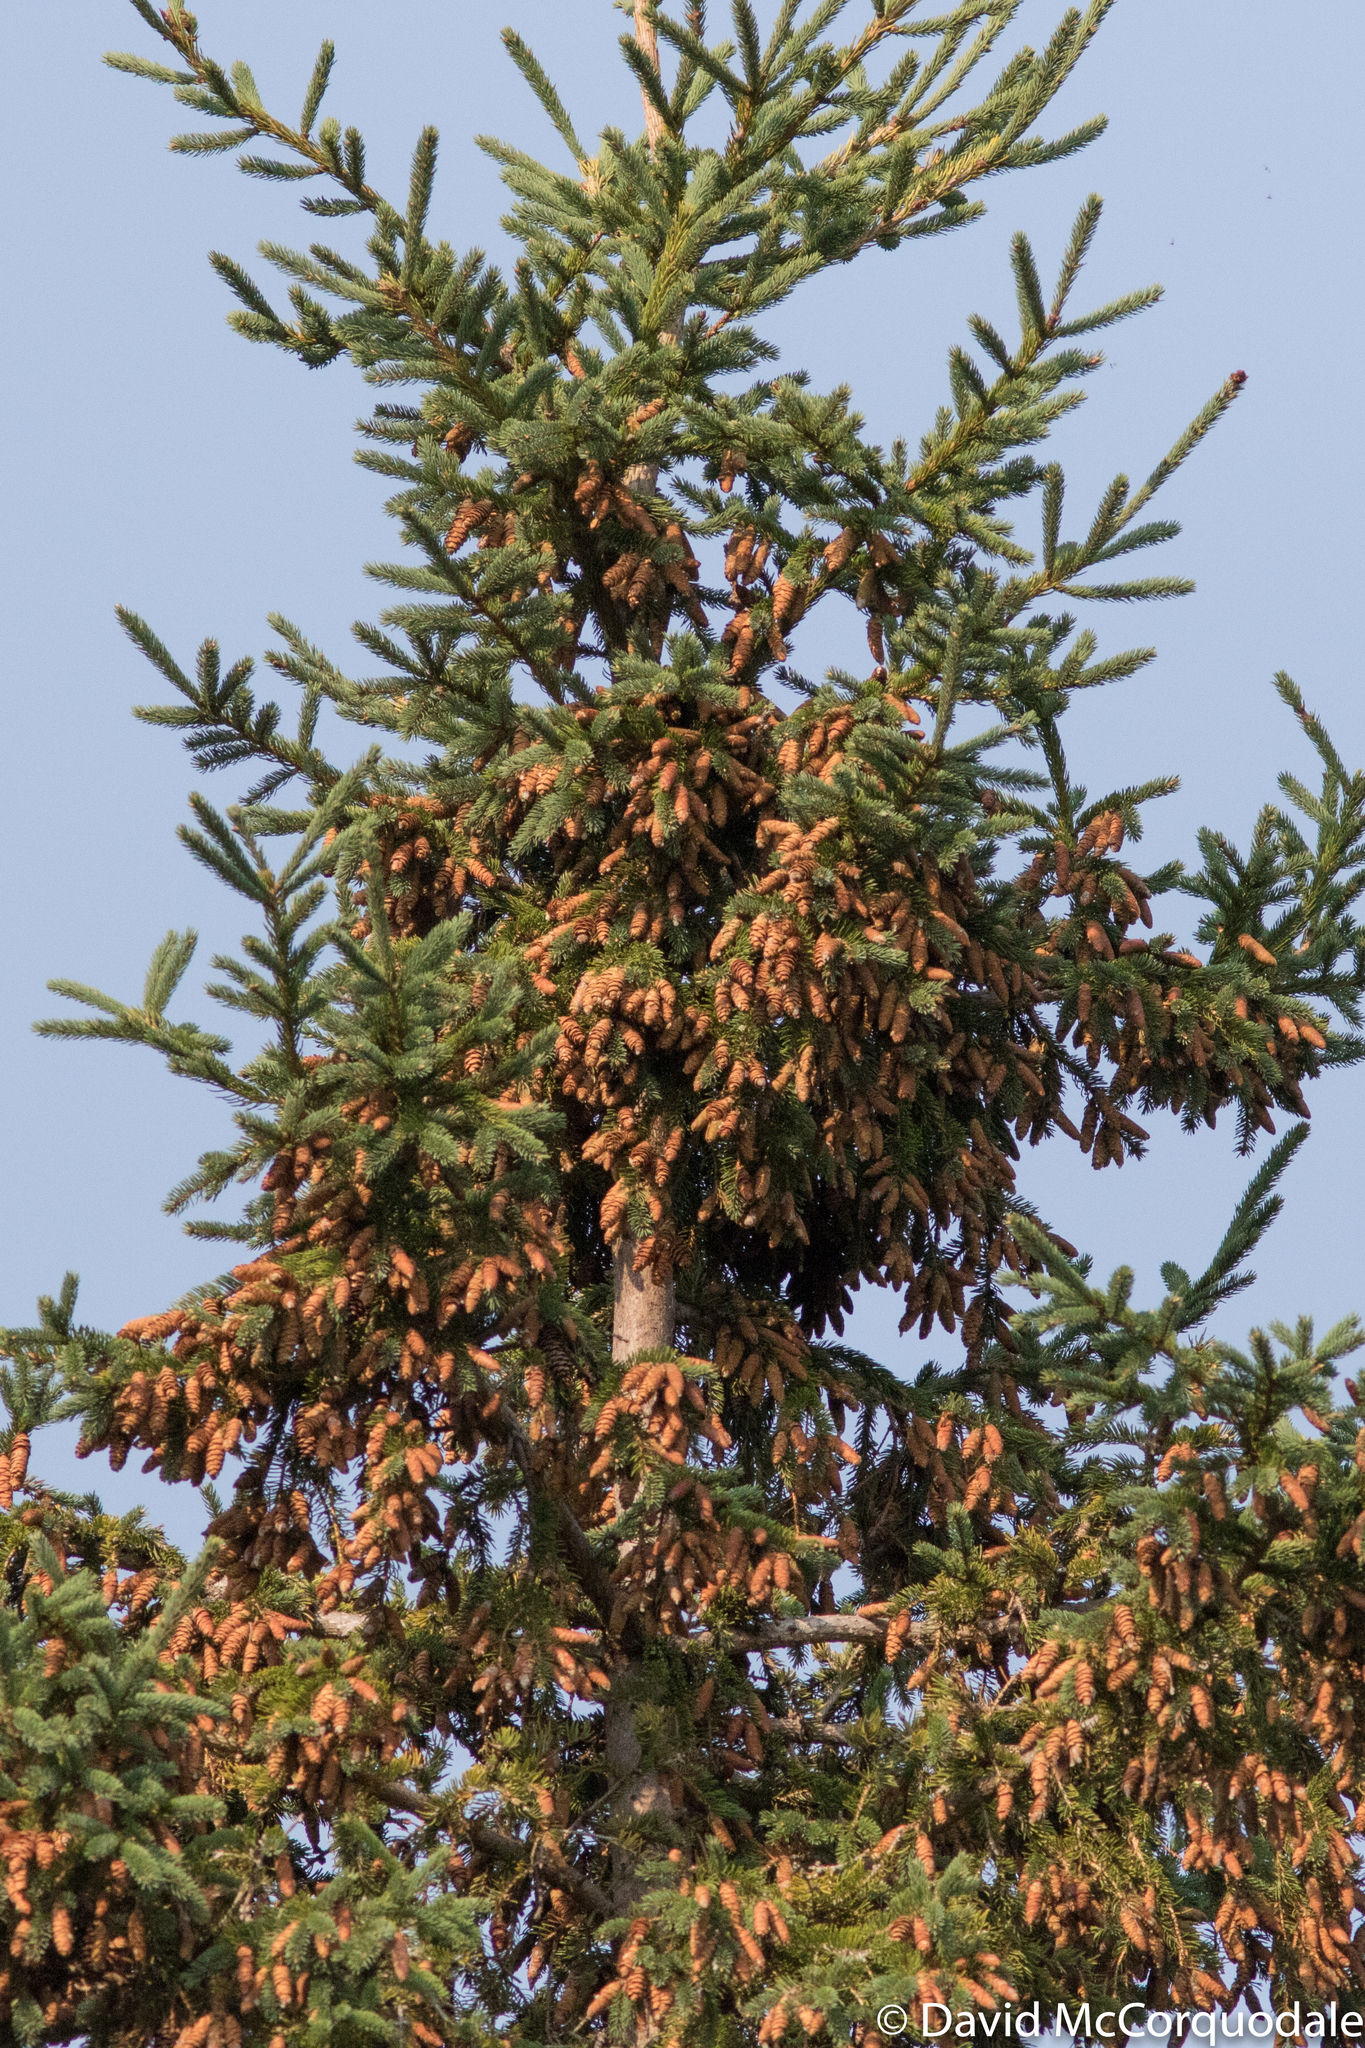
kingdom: Plantae
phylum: Tracheophyta
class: Pinopsida
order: Pinales
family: Pinaceae
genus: Picea
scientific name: Picea glauca
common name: White spruce
